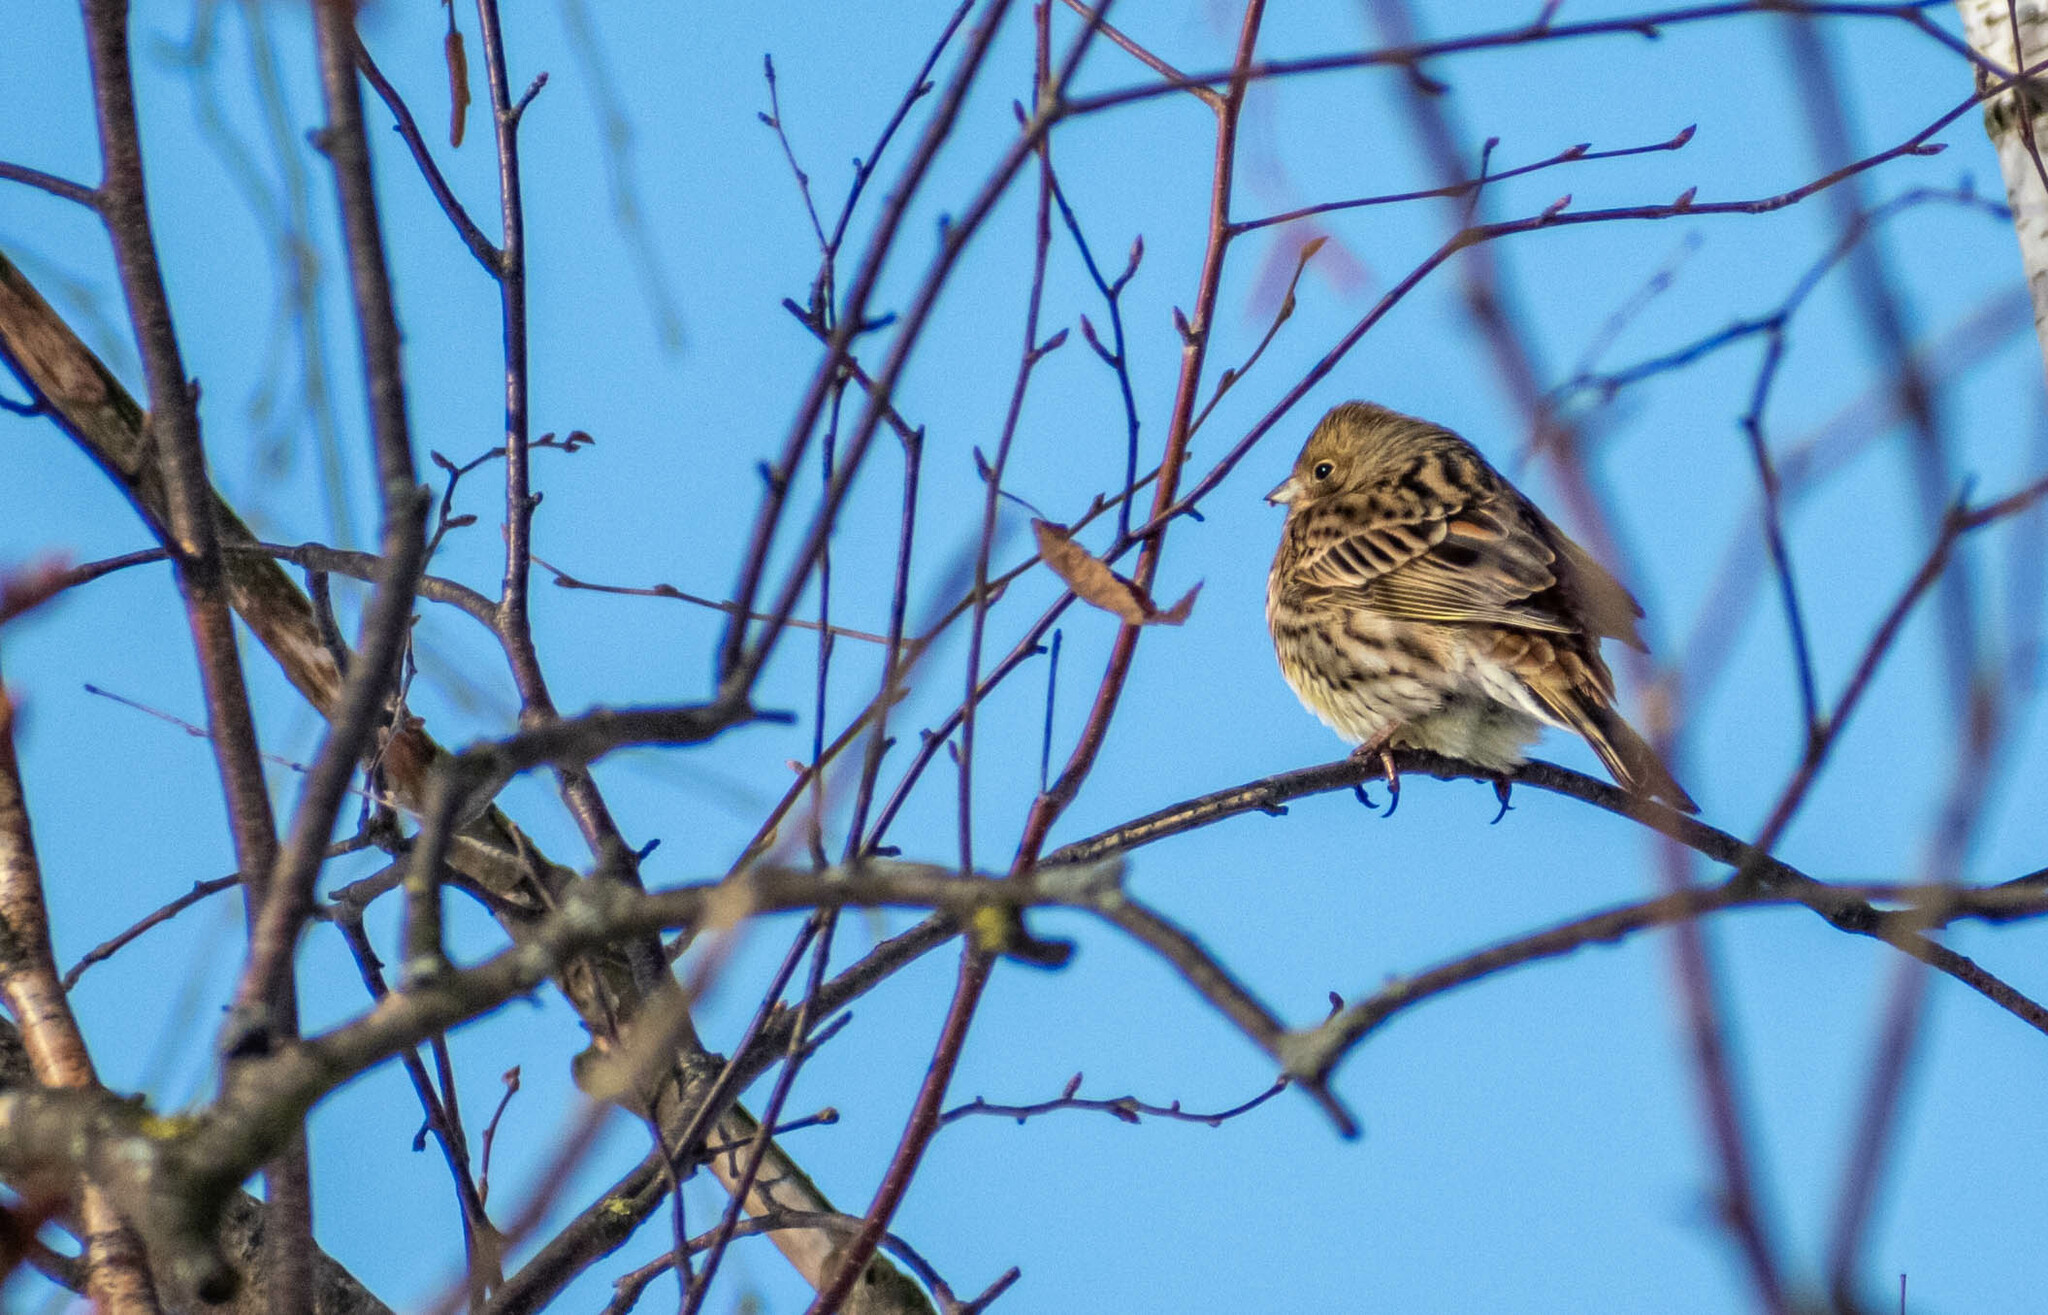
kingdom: Animalia
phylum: Chordata
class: Aves
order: Passeriformes
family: Emberizidae
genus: Emberiza
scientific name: Emberiza citrinella
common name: Yellowhammer
